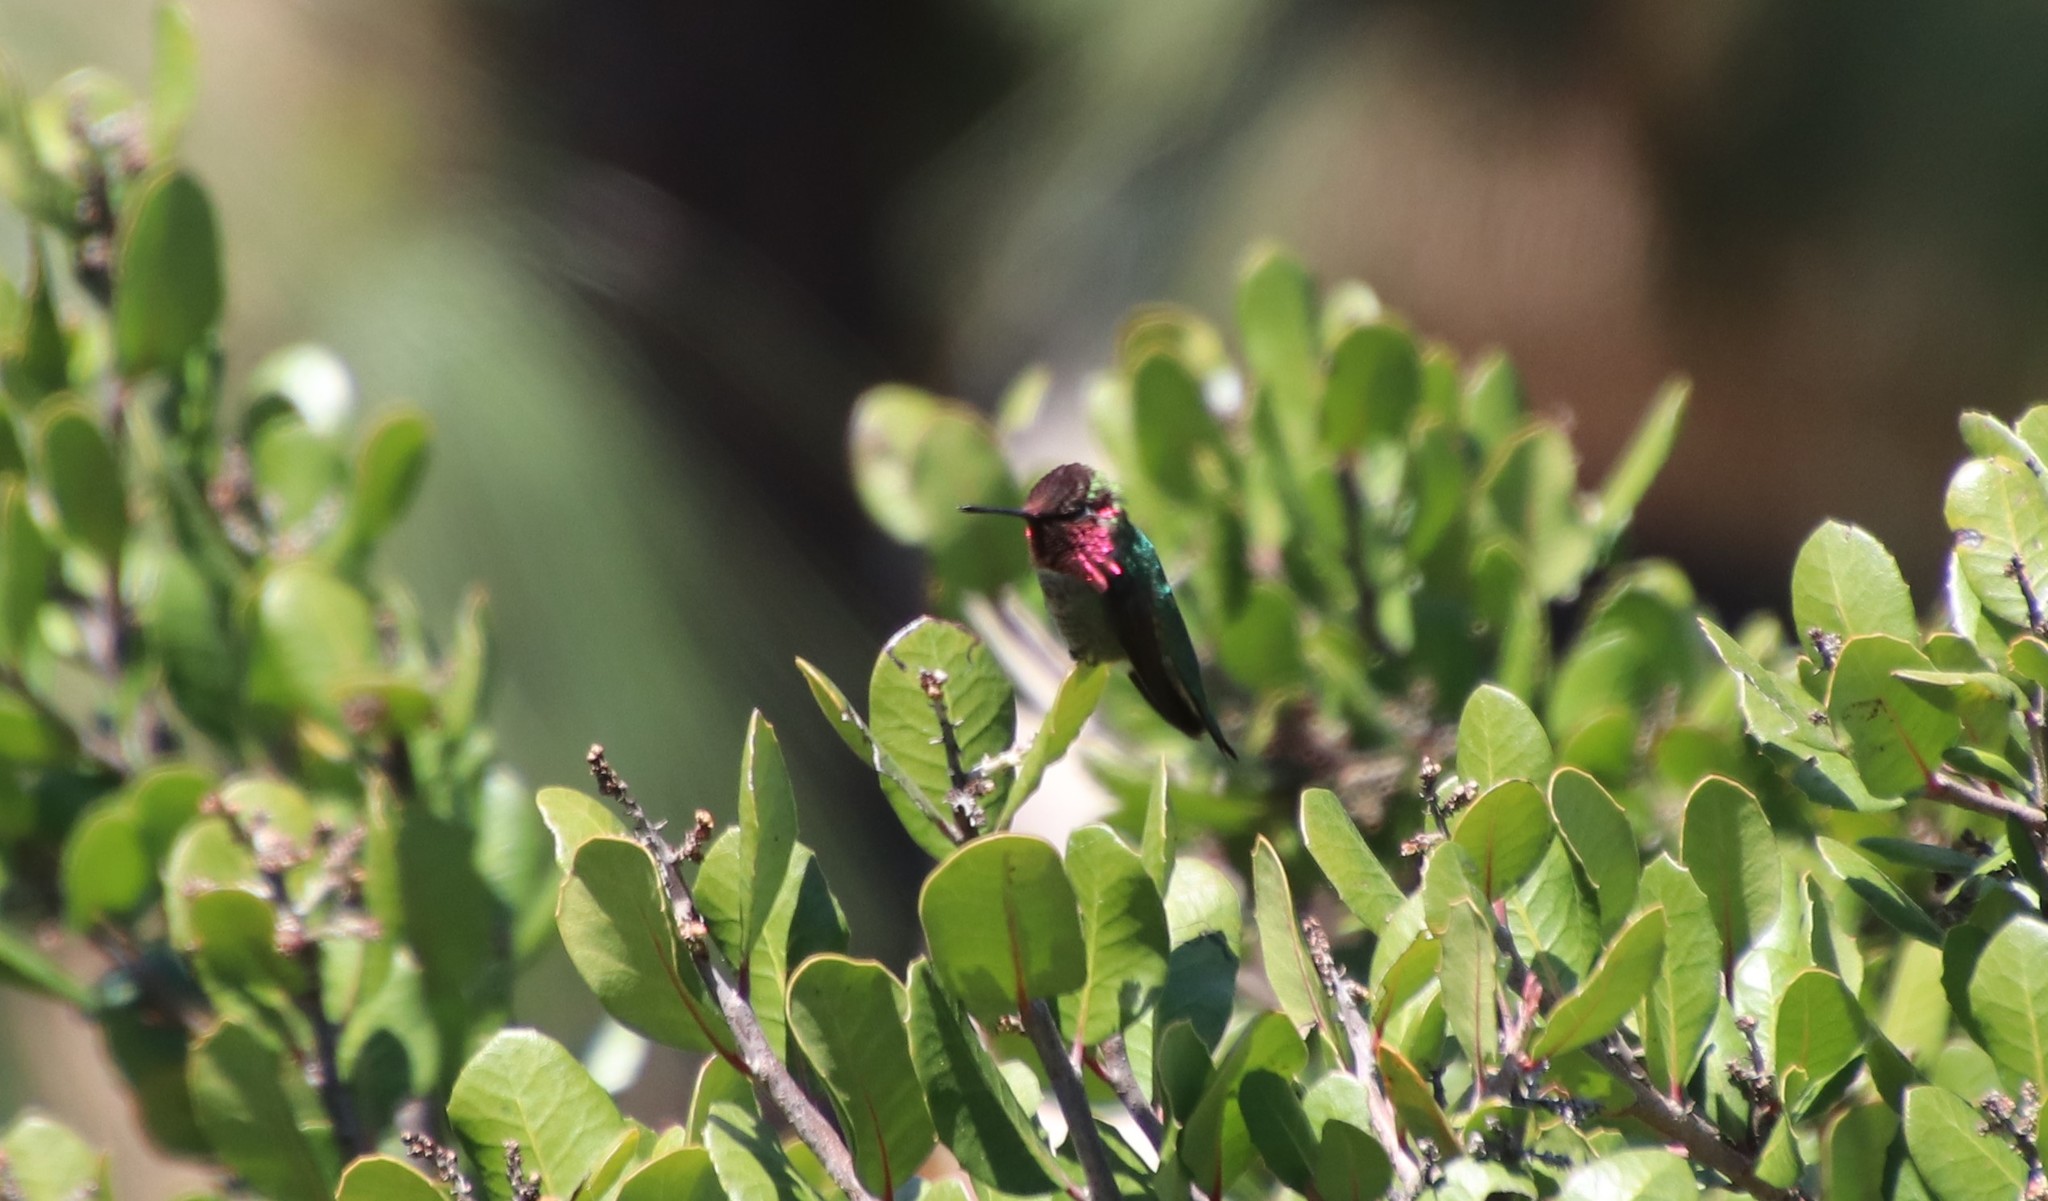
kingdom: Animalia
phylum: Chordata
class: Aves
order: Apodiformes
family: Trochilidae
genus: Calypte
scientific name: Calypte anna
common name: Anna's hummingbird
